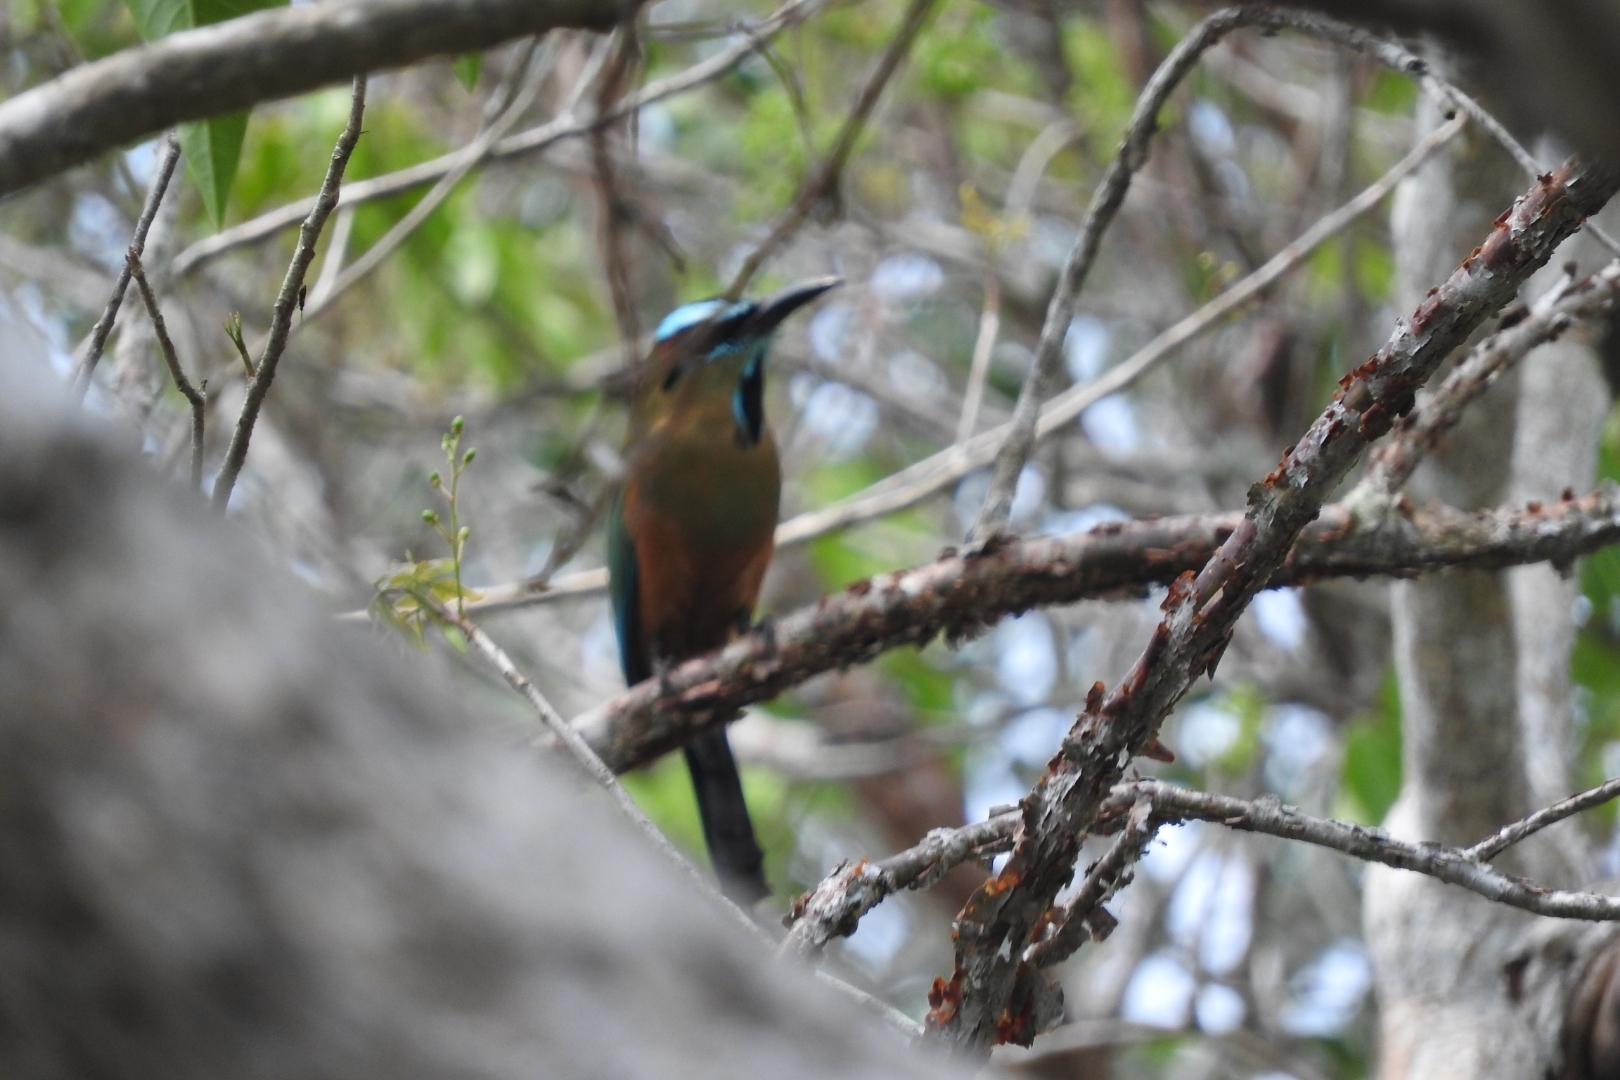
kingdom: Animalia
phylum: Chordata
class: Aves
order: Coraciiformes
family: Momotidae
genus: Eumomota
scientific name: Eumomota superciliosa
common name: Turquoise-browed motmot
